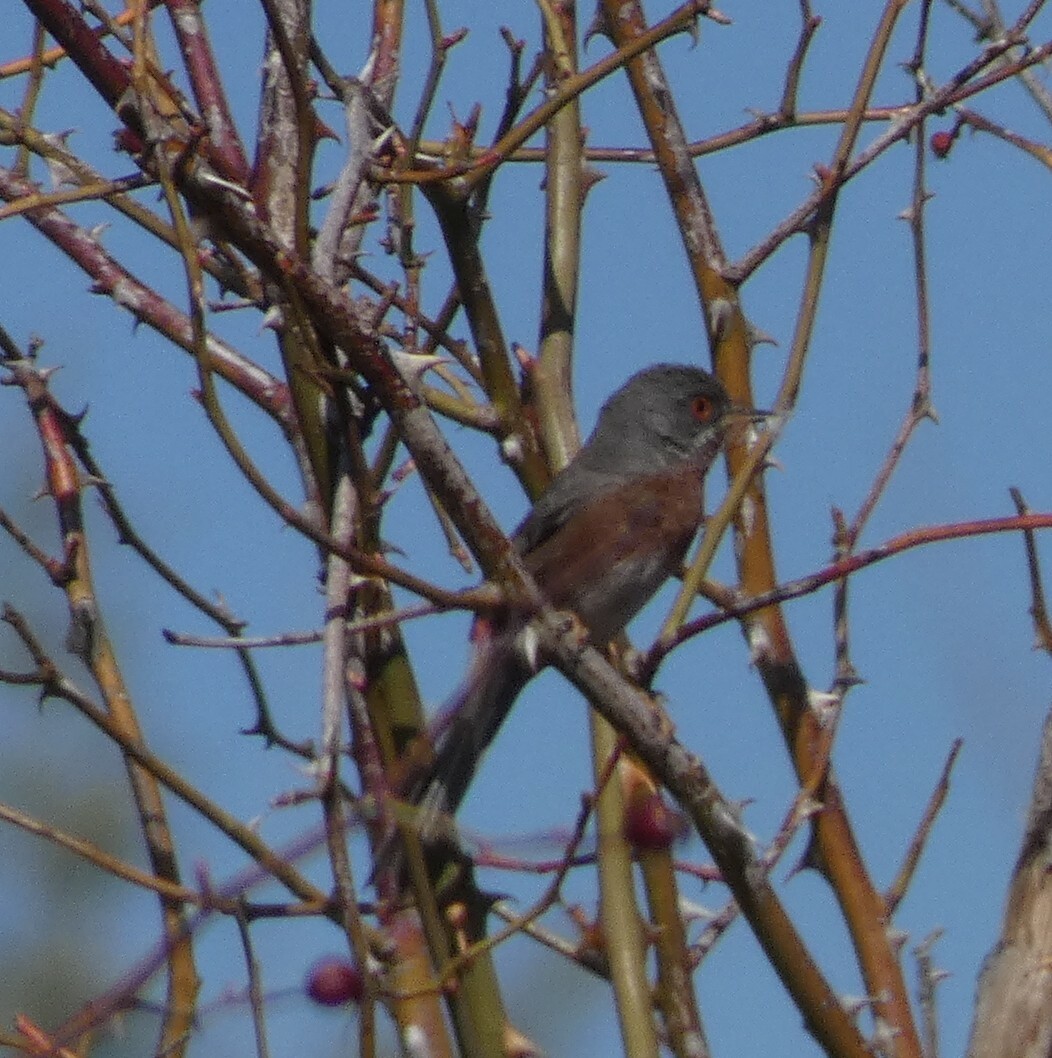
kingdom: Animalia
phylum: Chordata
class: Aves
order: Passeriformes
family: Sylviidae
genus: Sylvia
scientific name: Sylvia undata
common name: Dartford warbler
